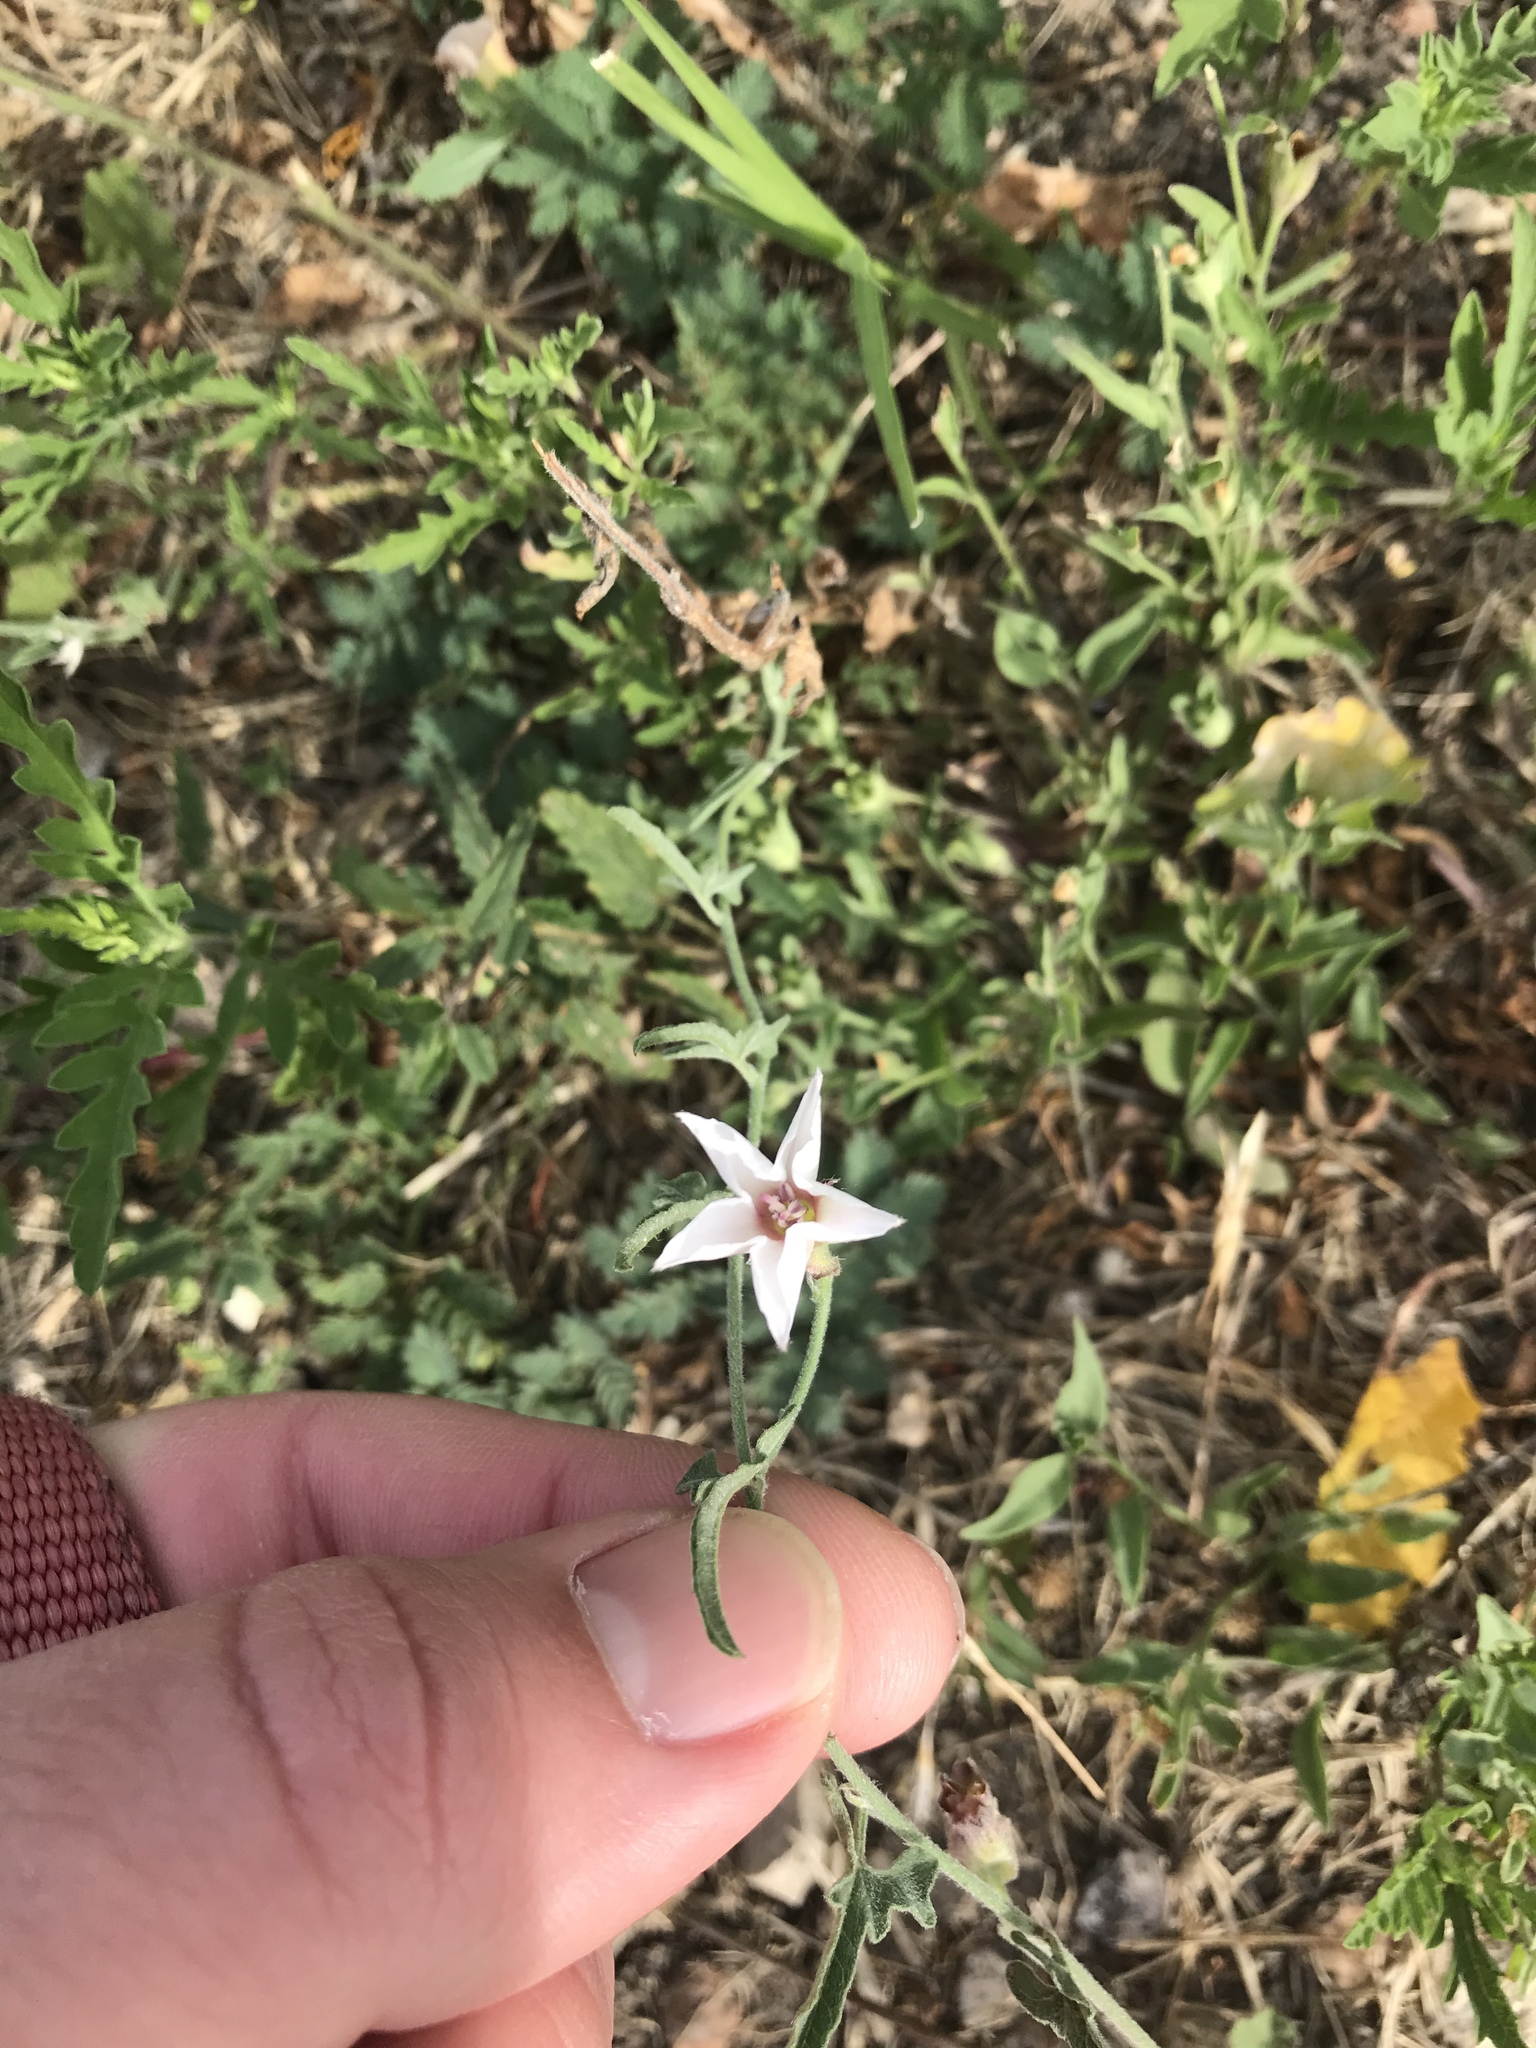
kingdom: Plantae
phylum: Tracheophyta
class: Magnoliopsida
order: Solanales
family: Convolvulaceae
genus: Convolvulus
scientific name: Convolvulus equitans
